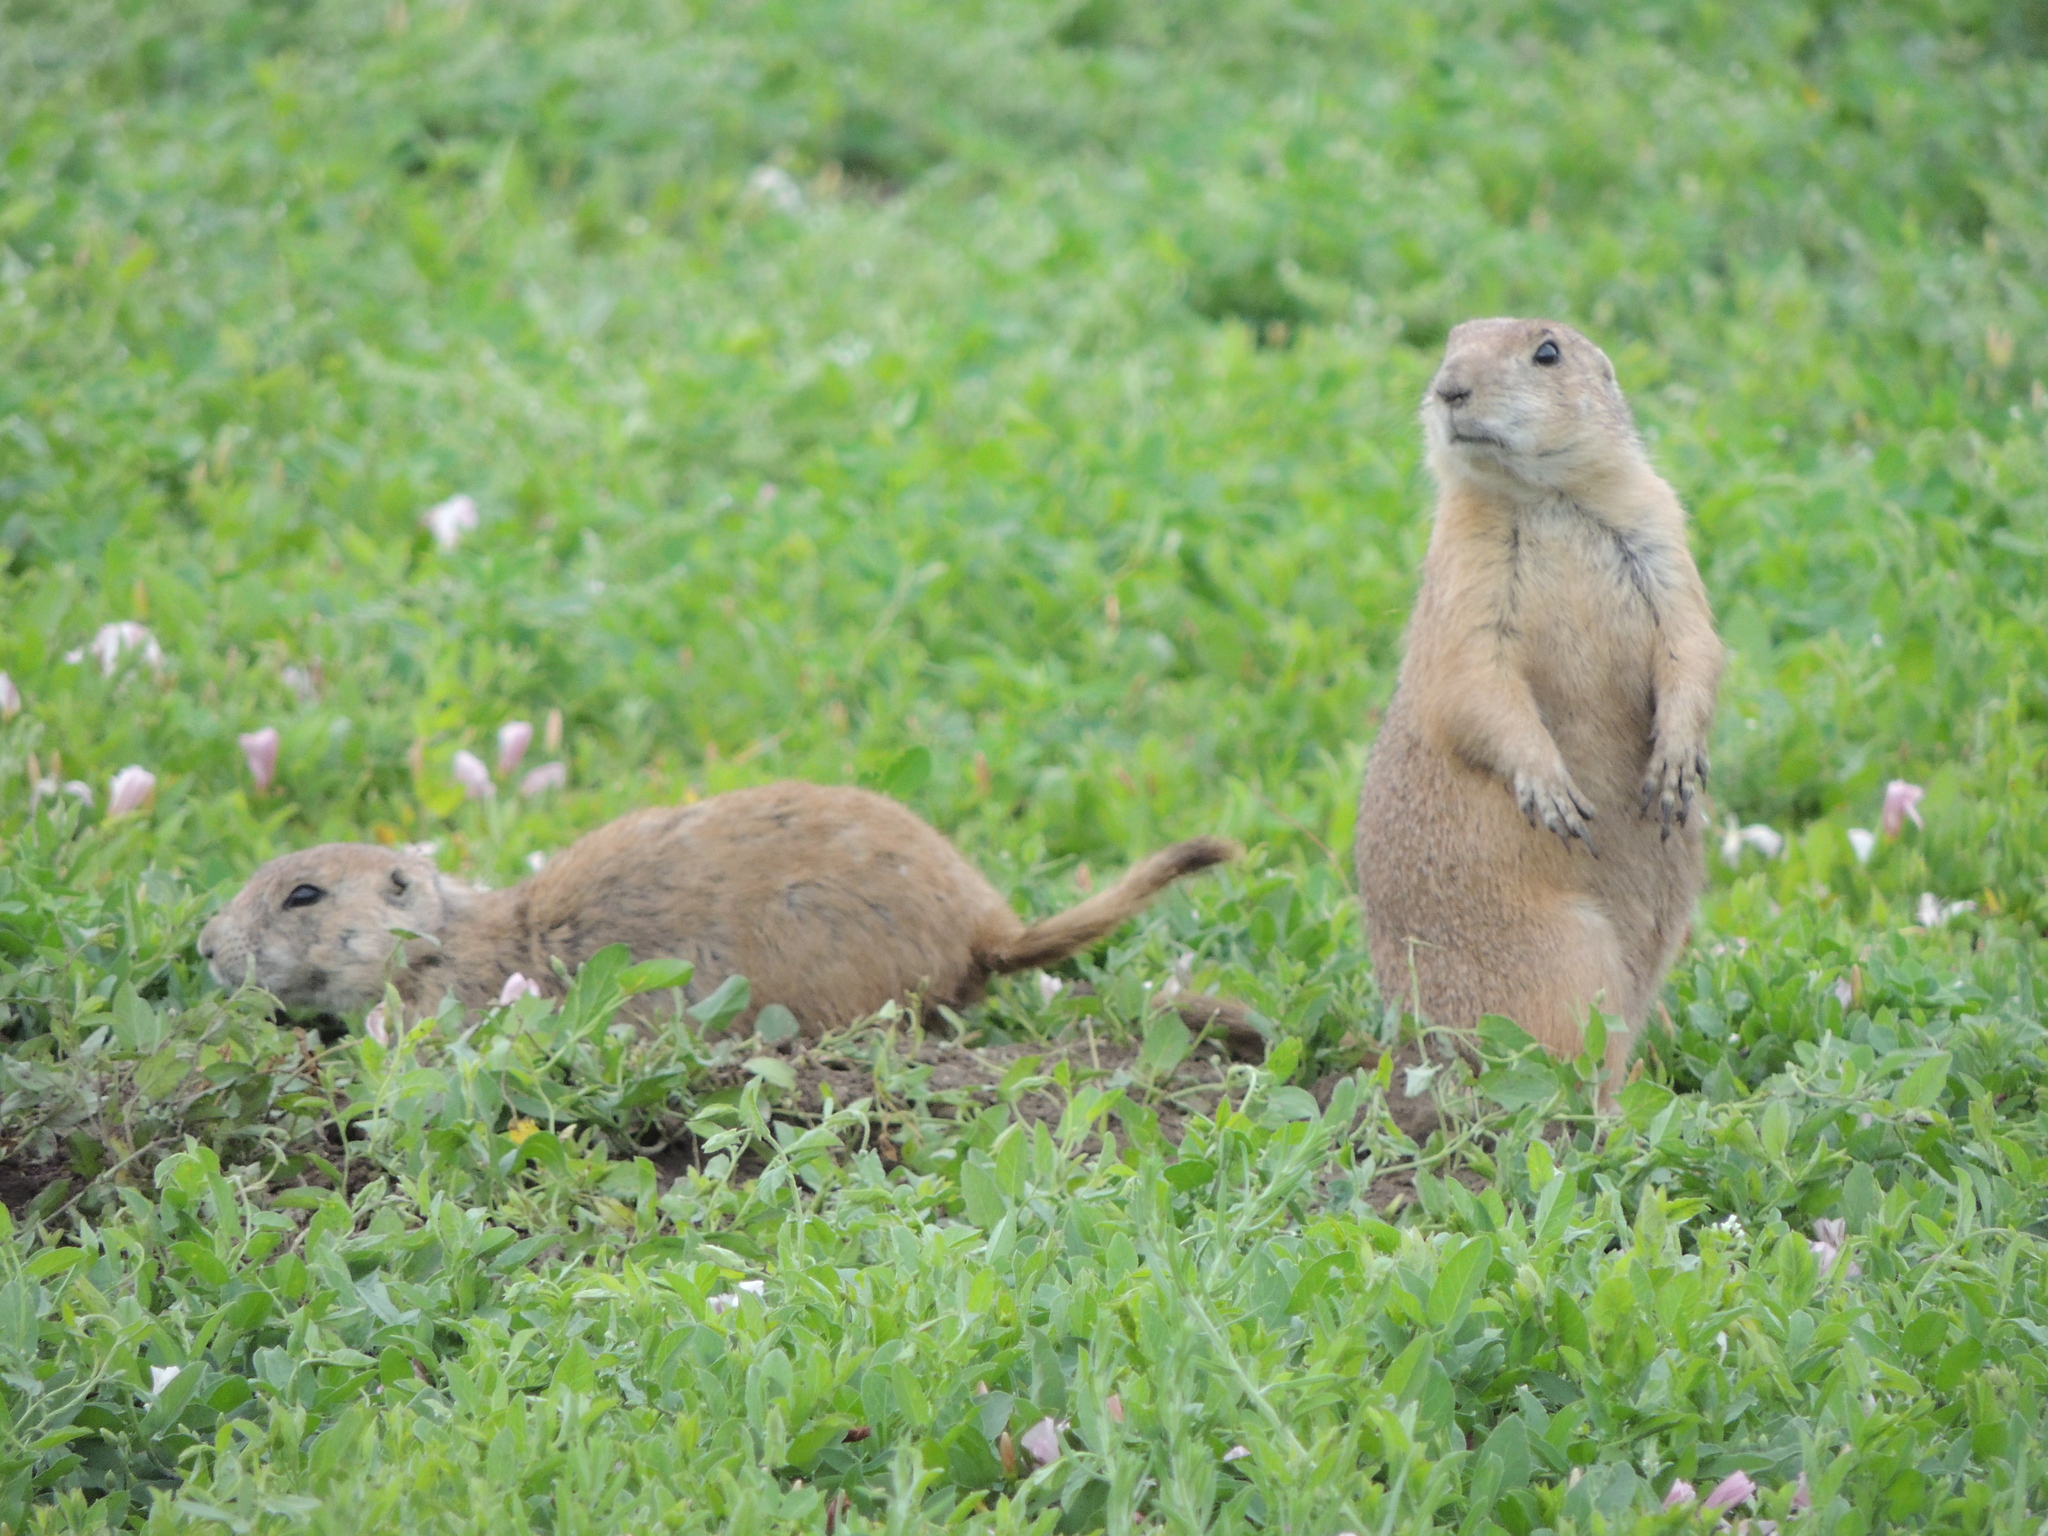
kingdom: Animalia
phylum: Chordata
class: Mammalia
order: Rodentia
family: Sciuridae
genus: Cynomys
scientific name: Cynomys ludovicianus
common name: Black-tailed prairie dog
